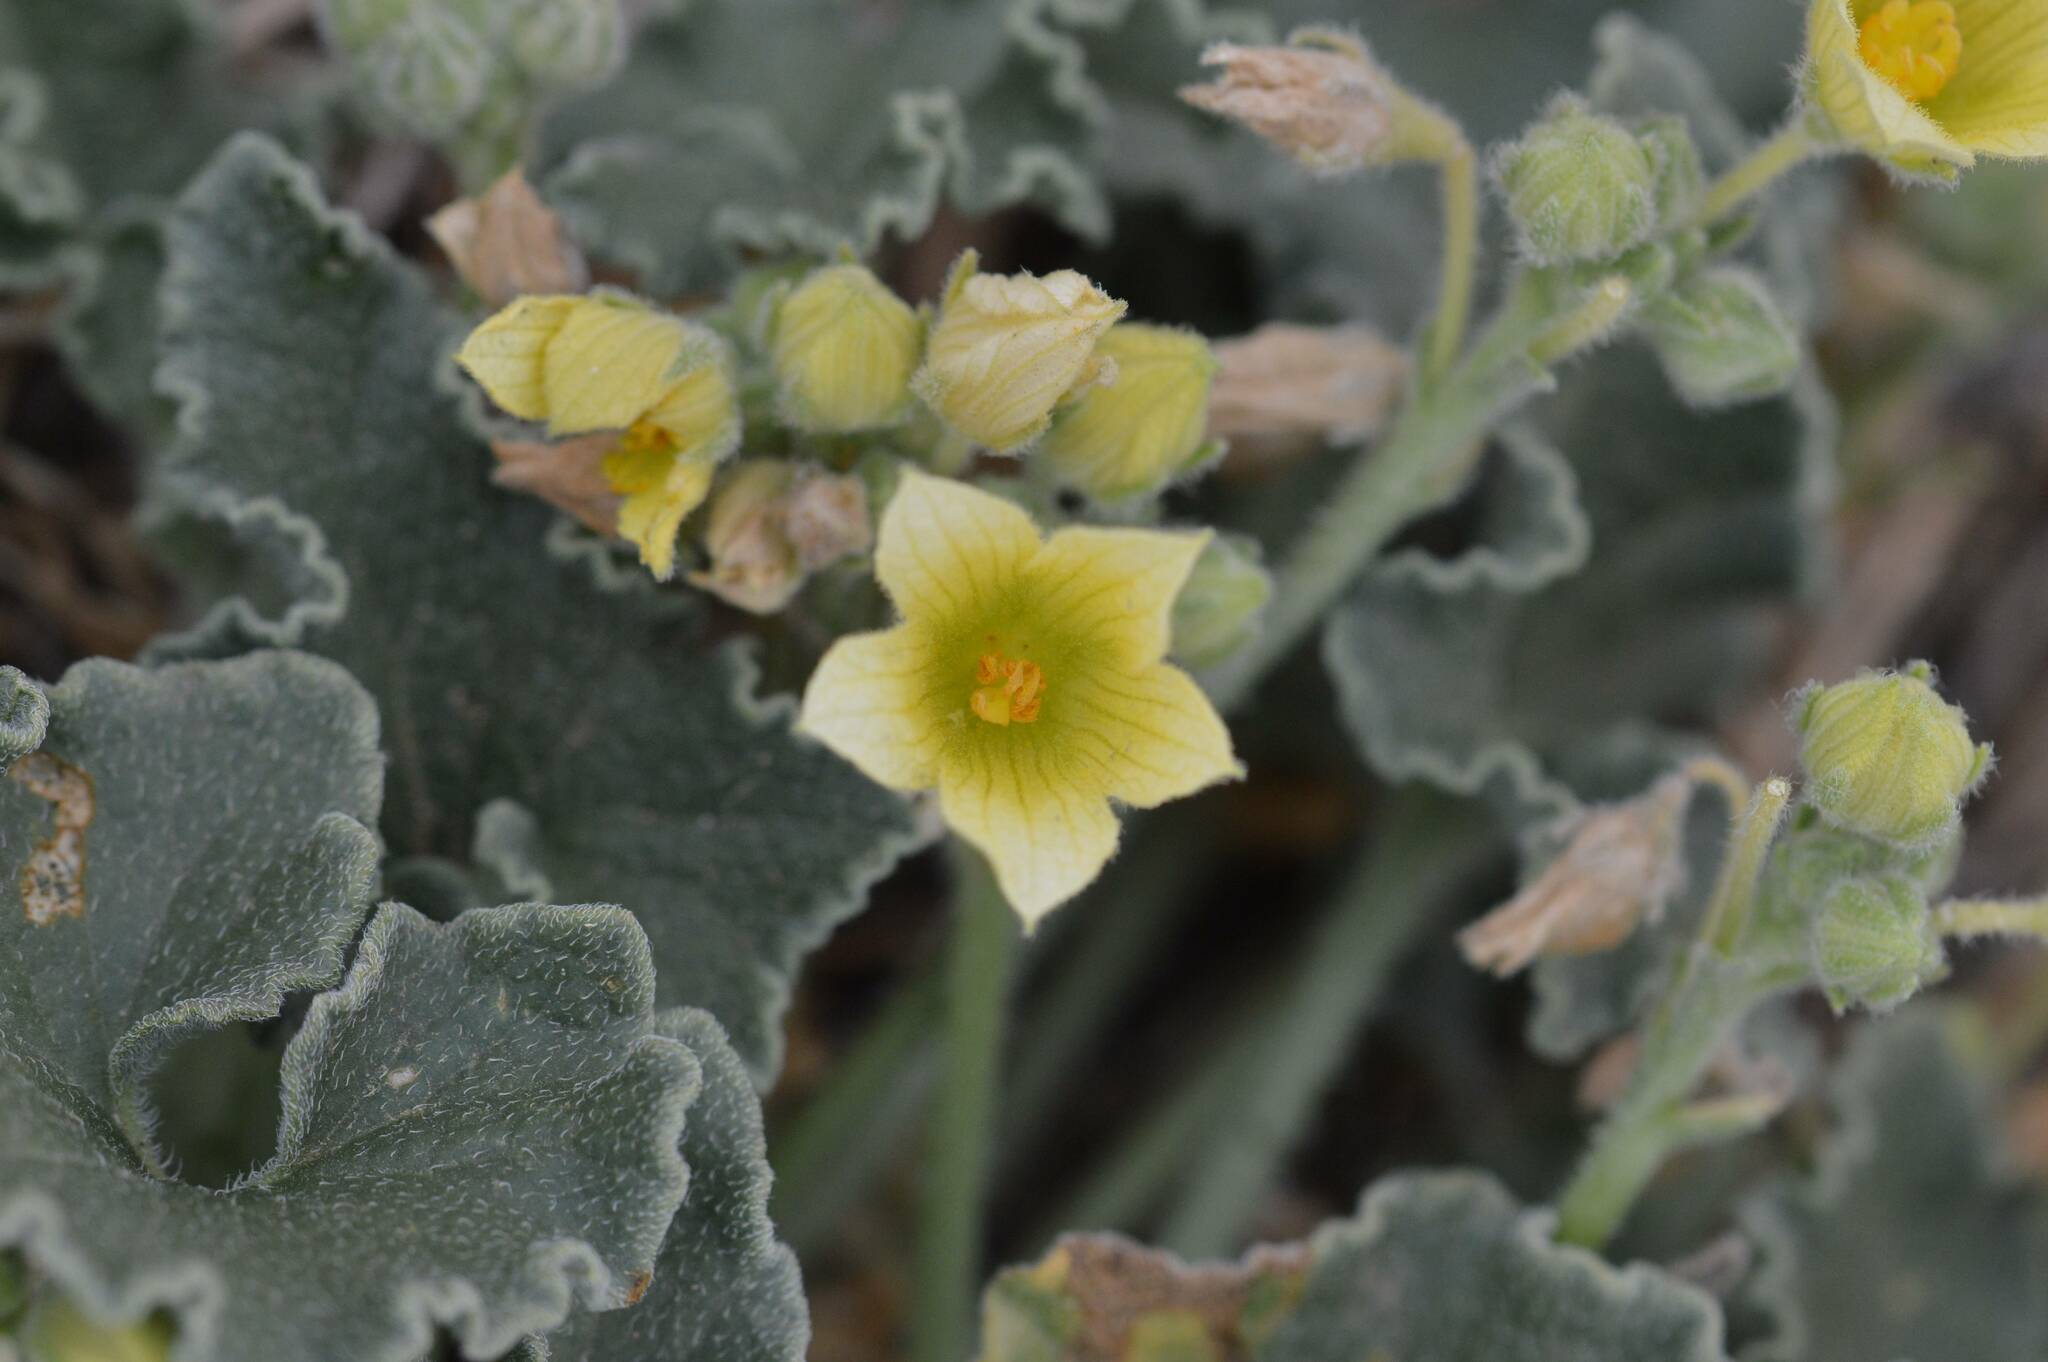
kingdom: Plantae
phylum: Tracheophyta
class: Magnoliopsida
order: Cucurbitales
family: Cucurbitaceae
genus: Ecballium
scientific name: Ecballium elaterium
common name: Squirting cucumber
